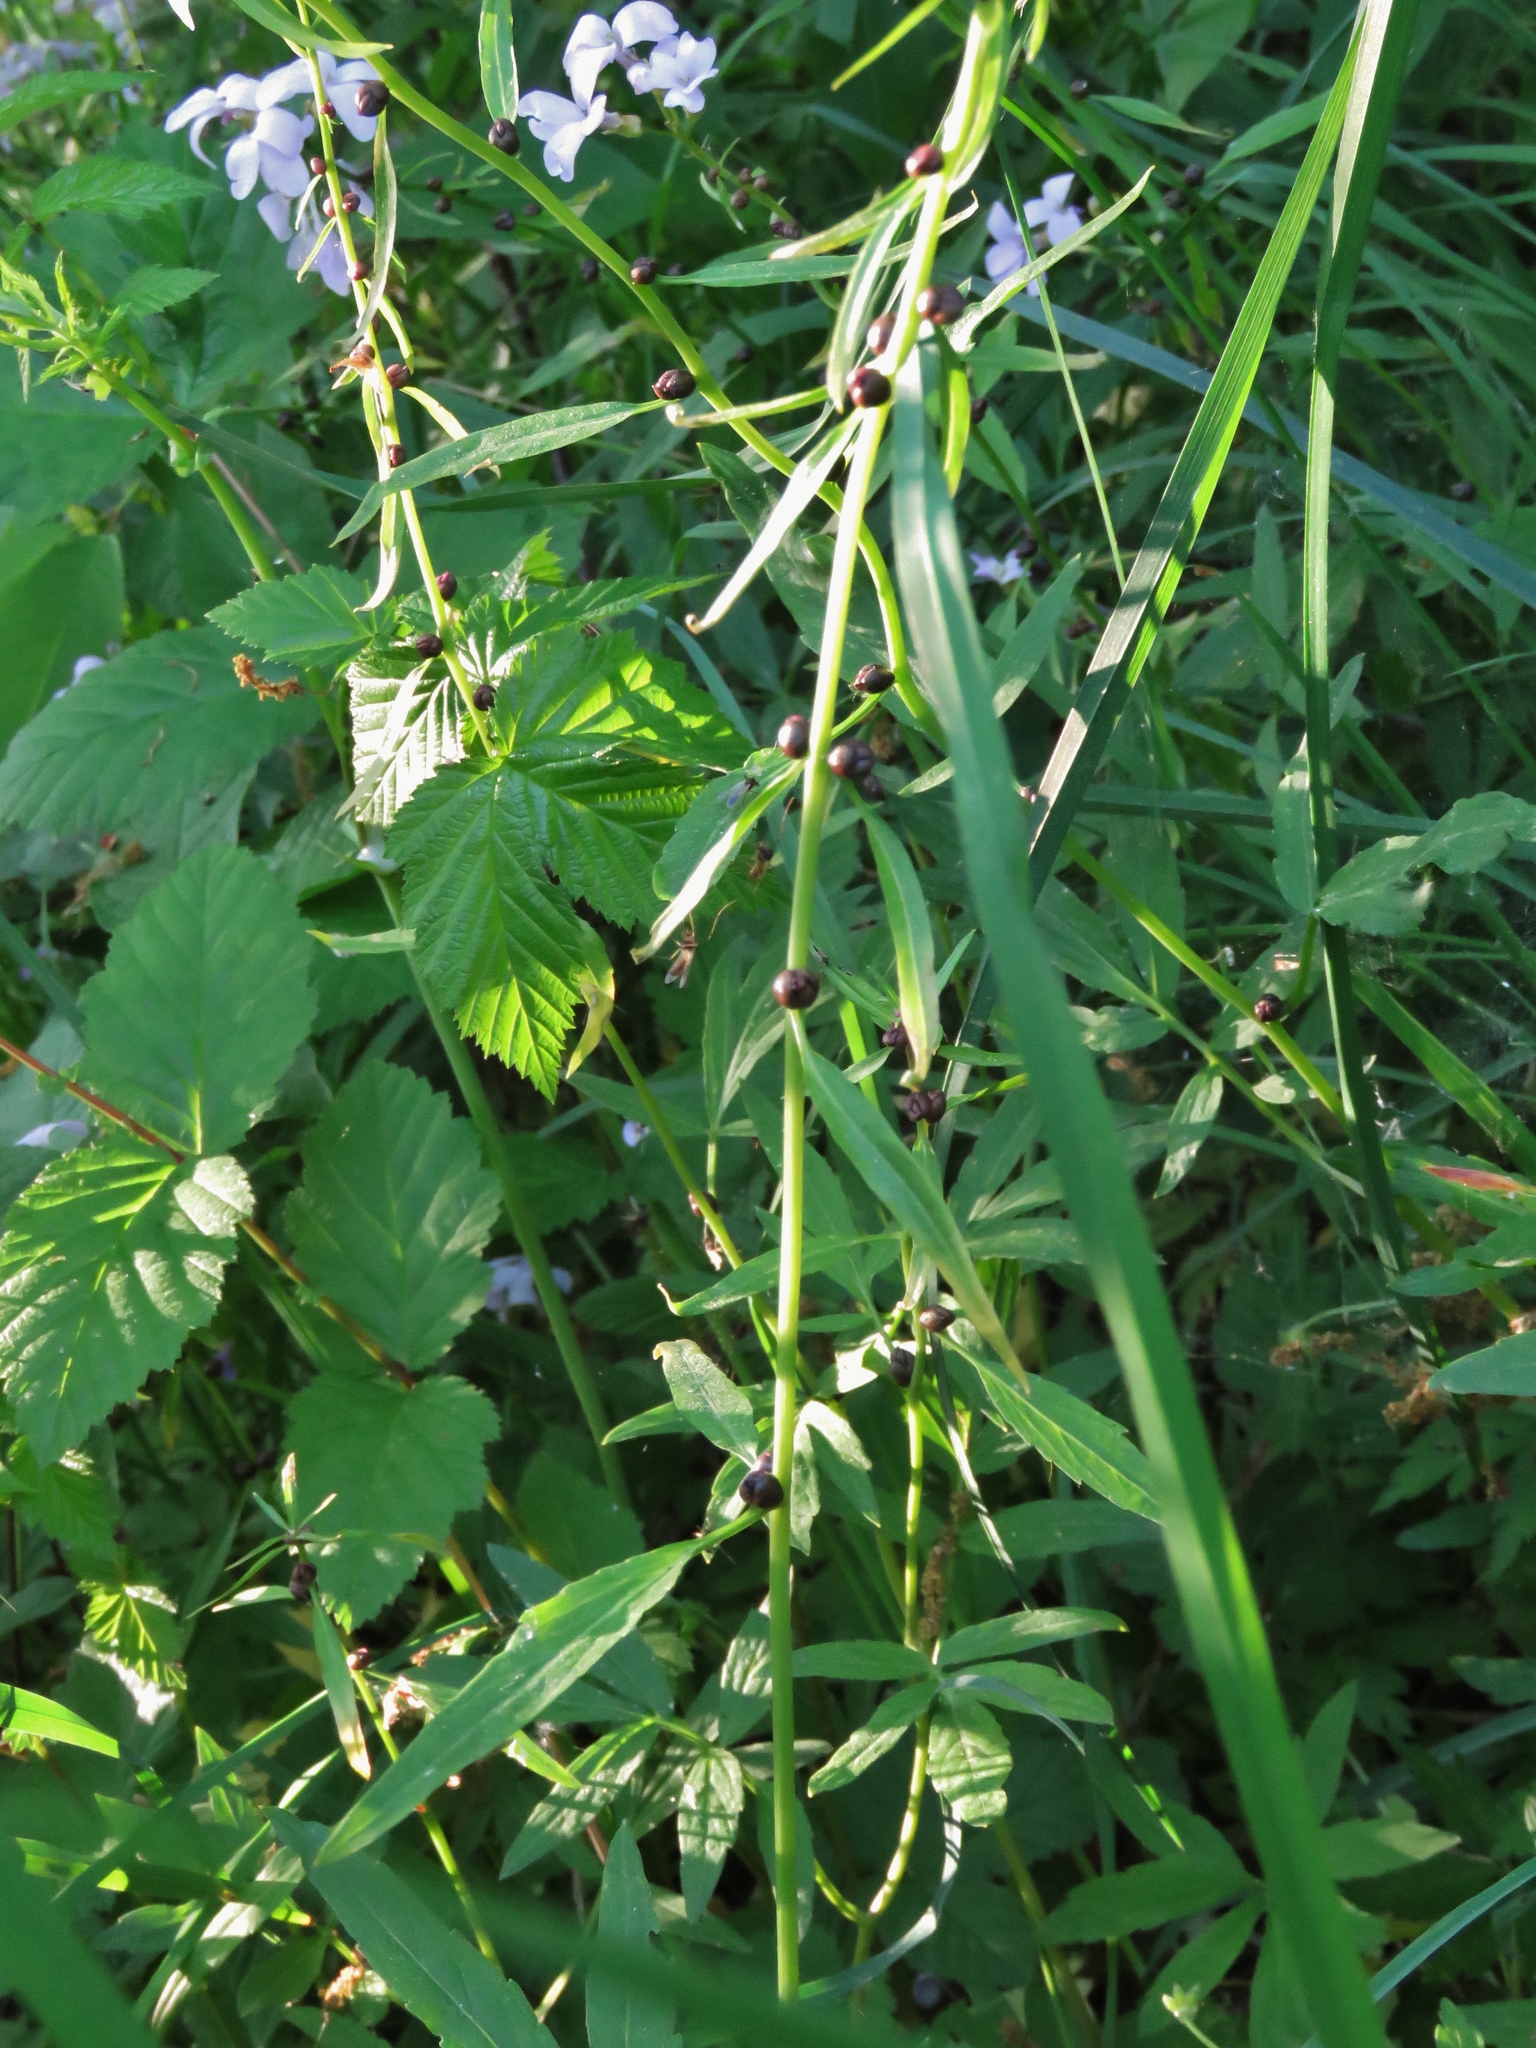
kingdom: Plantae
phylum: Tracheophyta
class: Magnoliopsida
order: Brassicales
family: Brassicaceae
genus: Cardamine
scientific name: Cardamine bulbifera
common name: Coralroot bittercress
